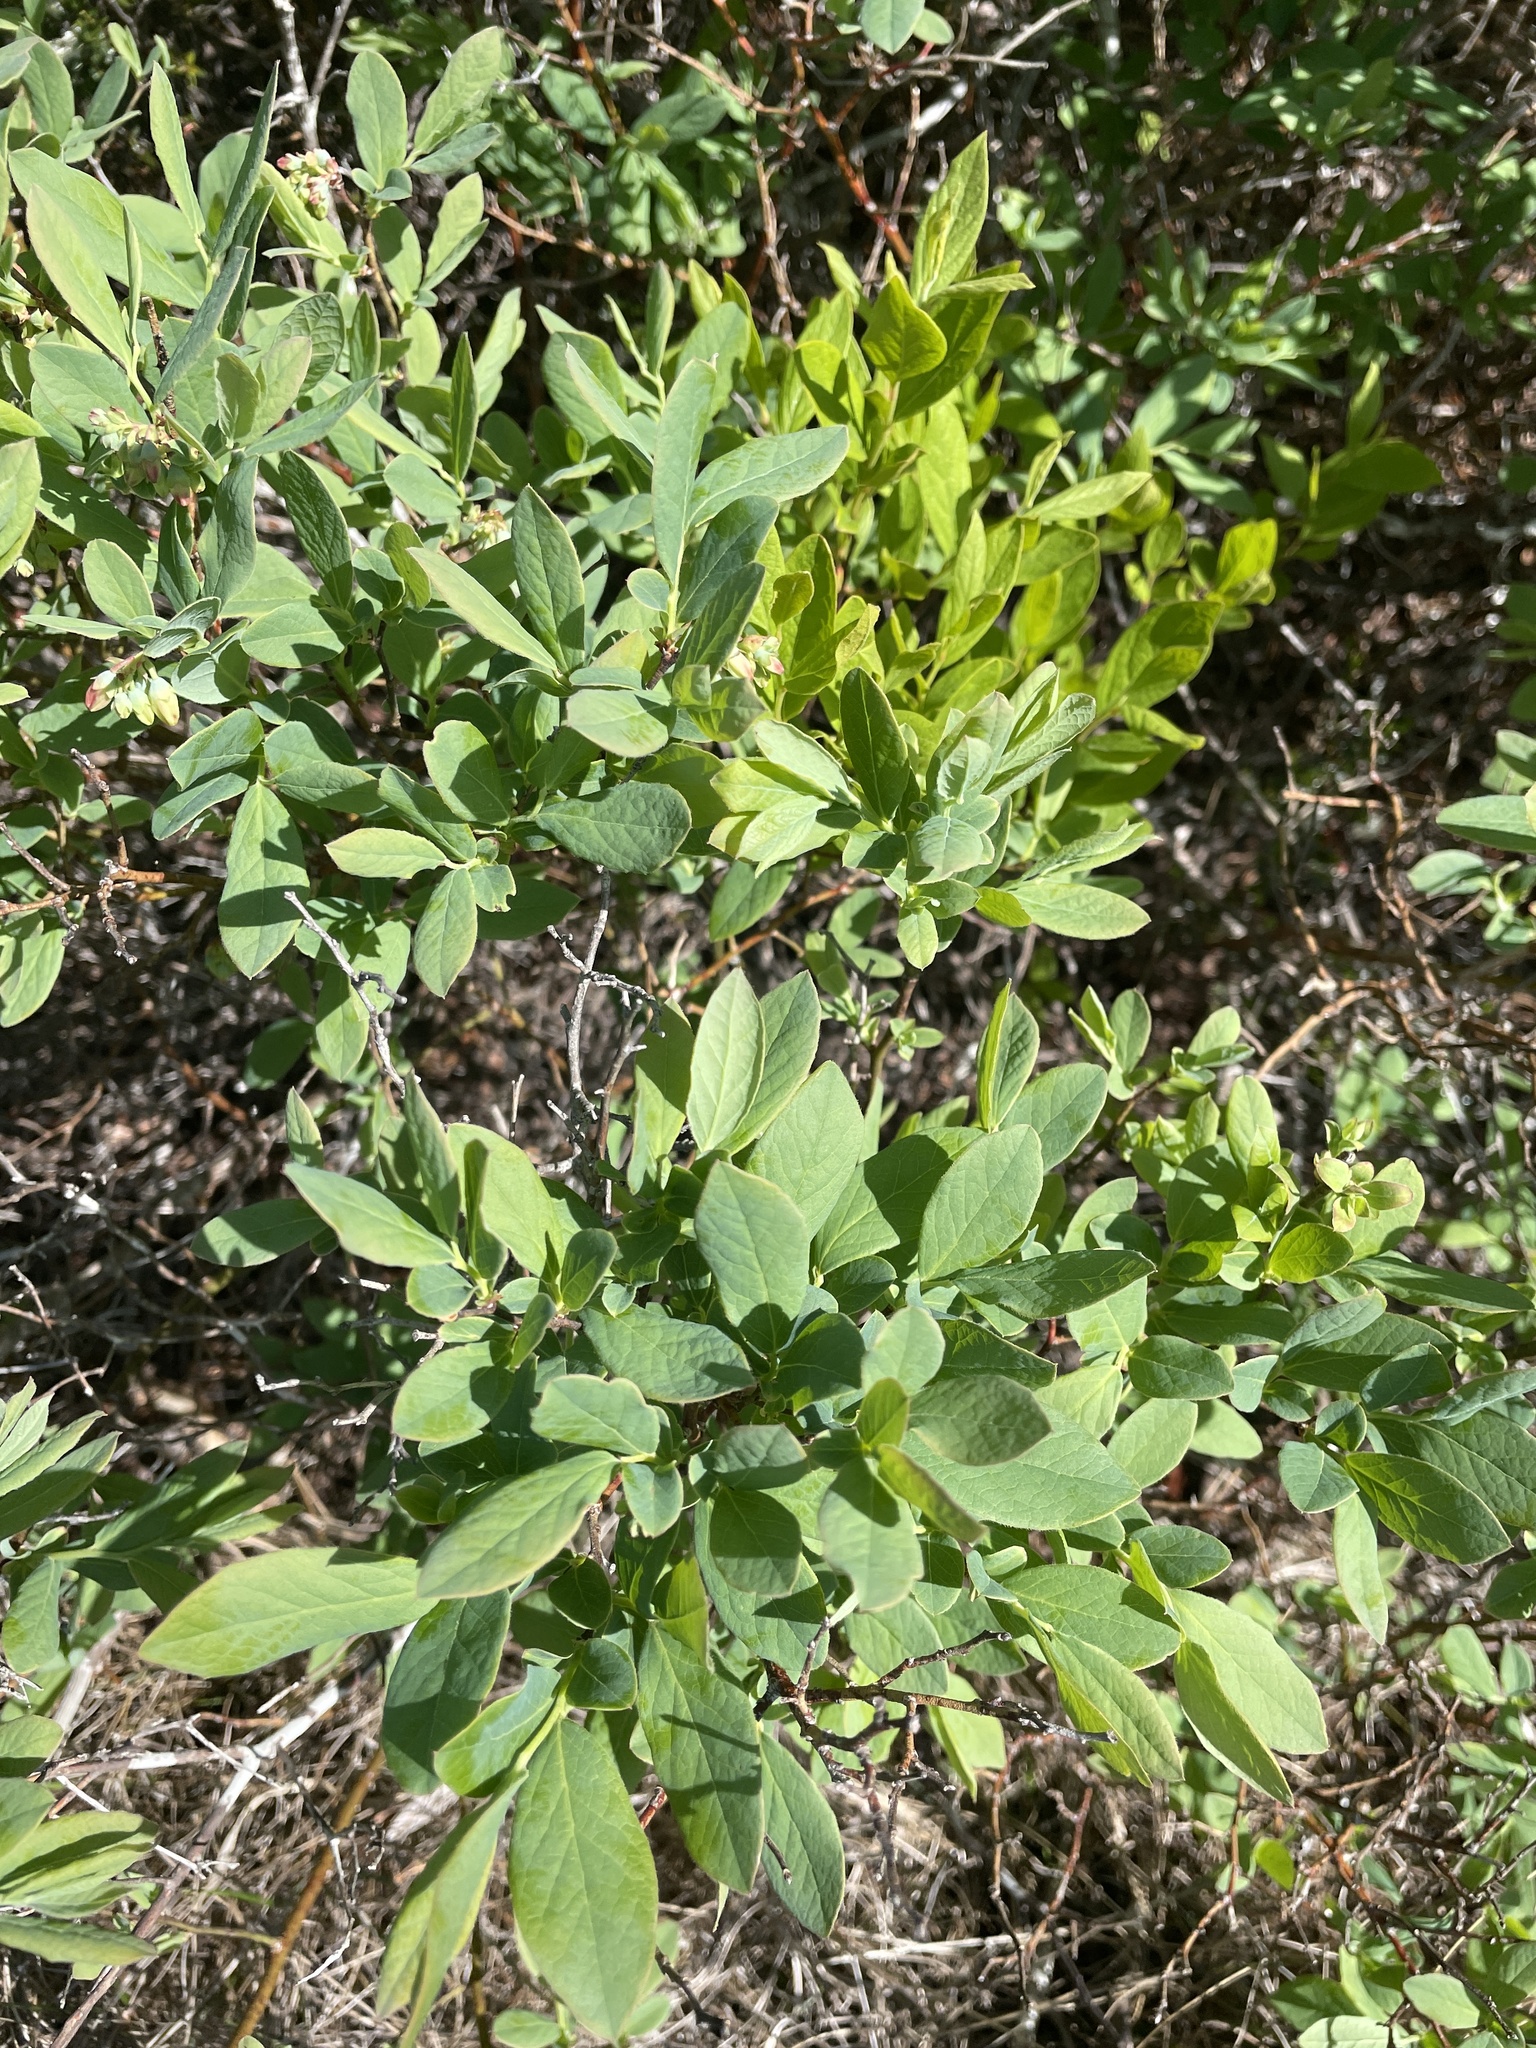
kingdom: Plantae
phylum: Tracheophyta
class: Magnoliopsida
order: Ericales
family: Ericaceae
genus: Vaccinium
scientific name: Vaccinium pallidum
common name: Blue ridge blueberry
